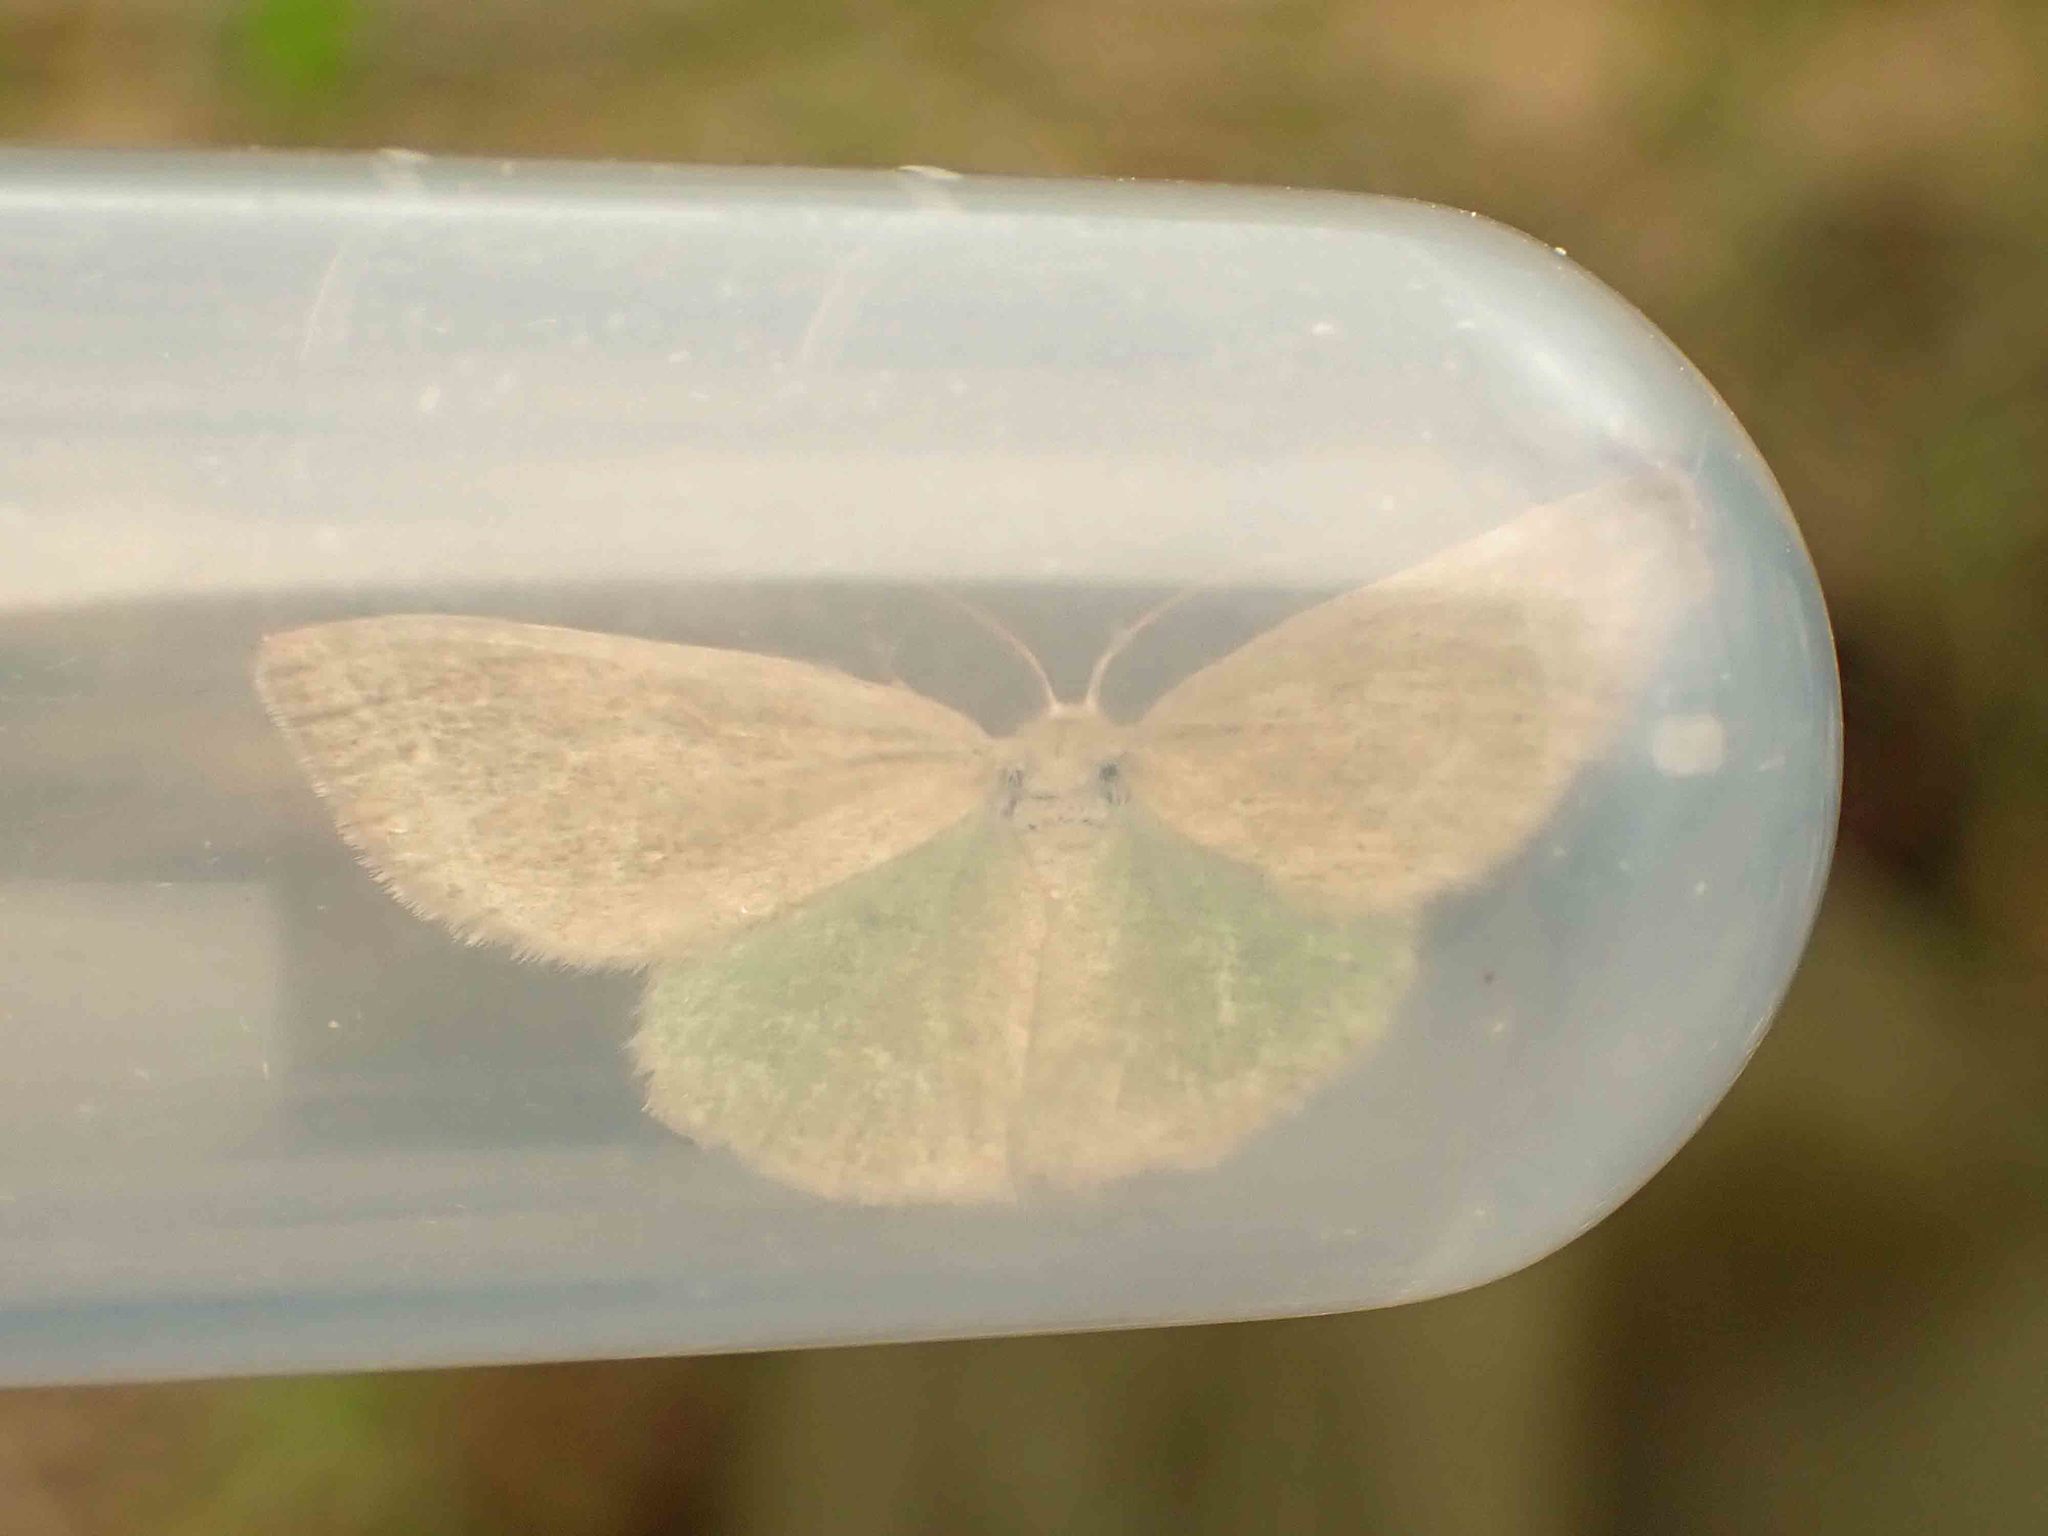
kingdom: Animalia
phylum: Arthropoda
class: Insecta
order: Lepidoptera
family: Geometridae
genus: Mesothea
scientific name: Mesothea incertata
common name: Day emerald moth
